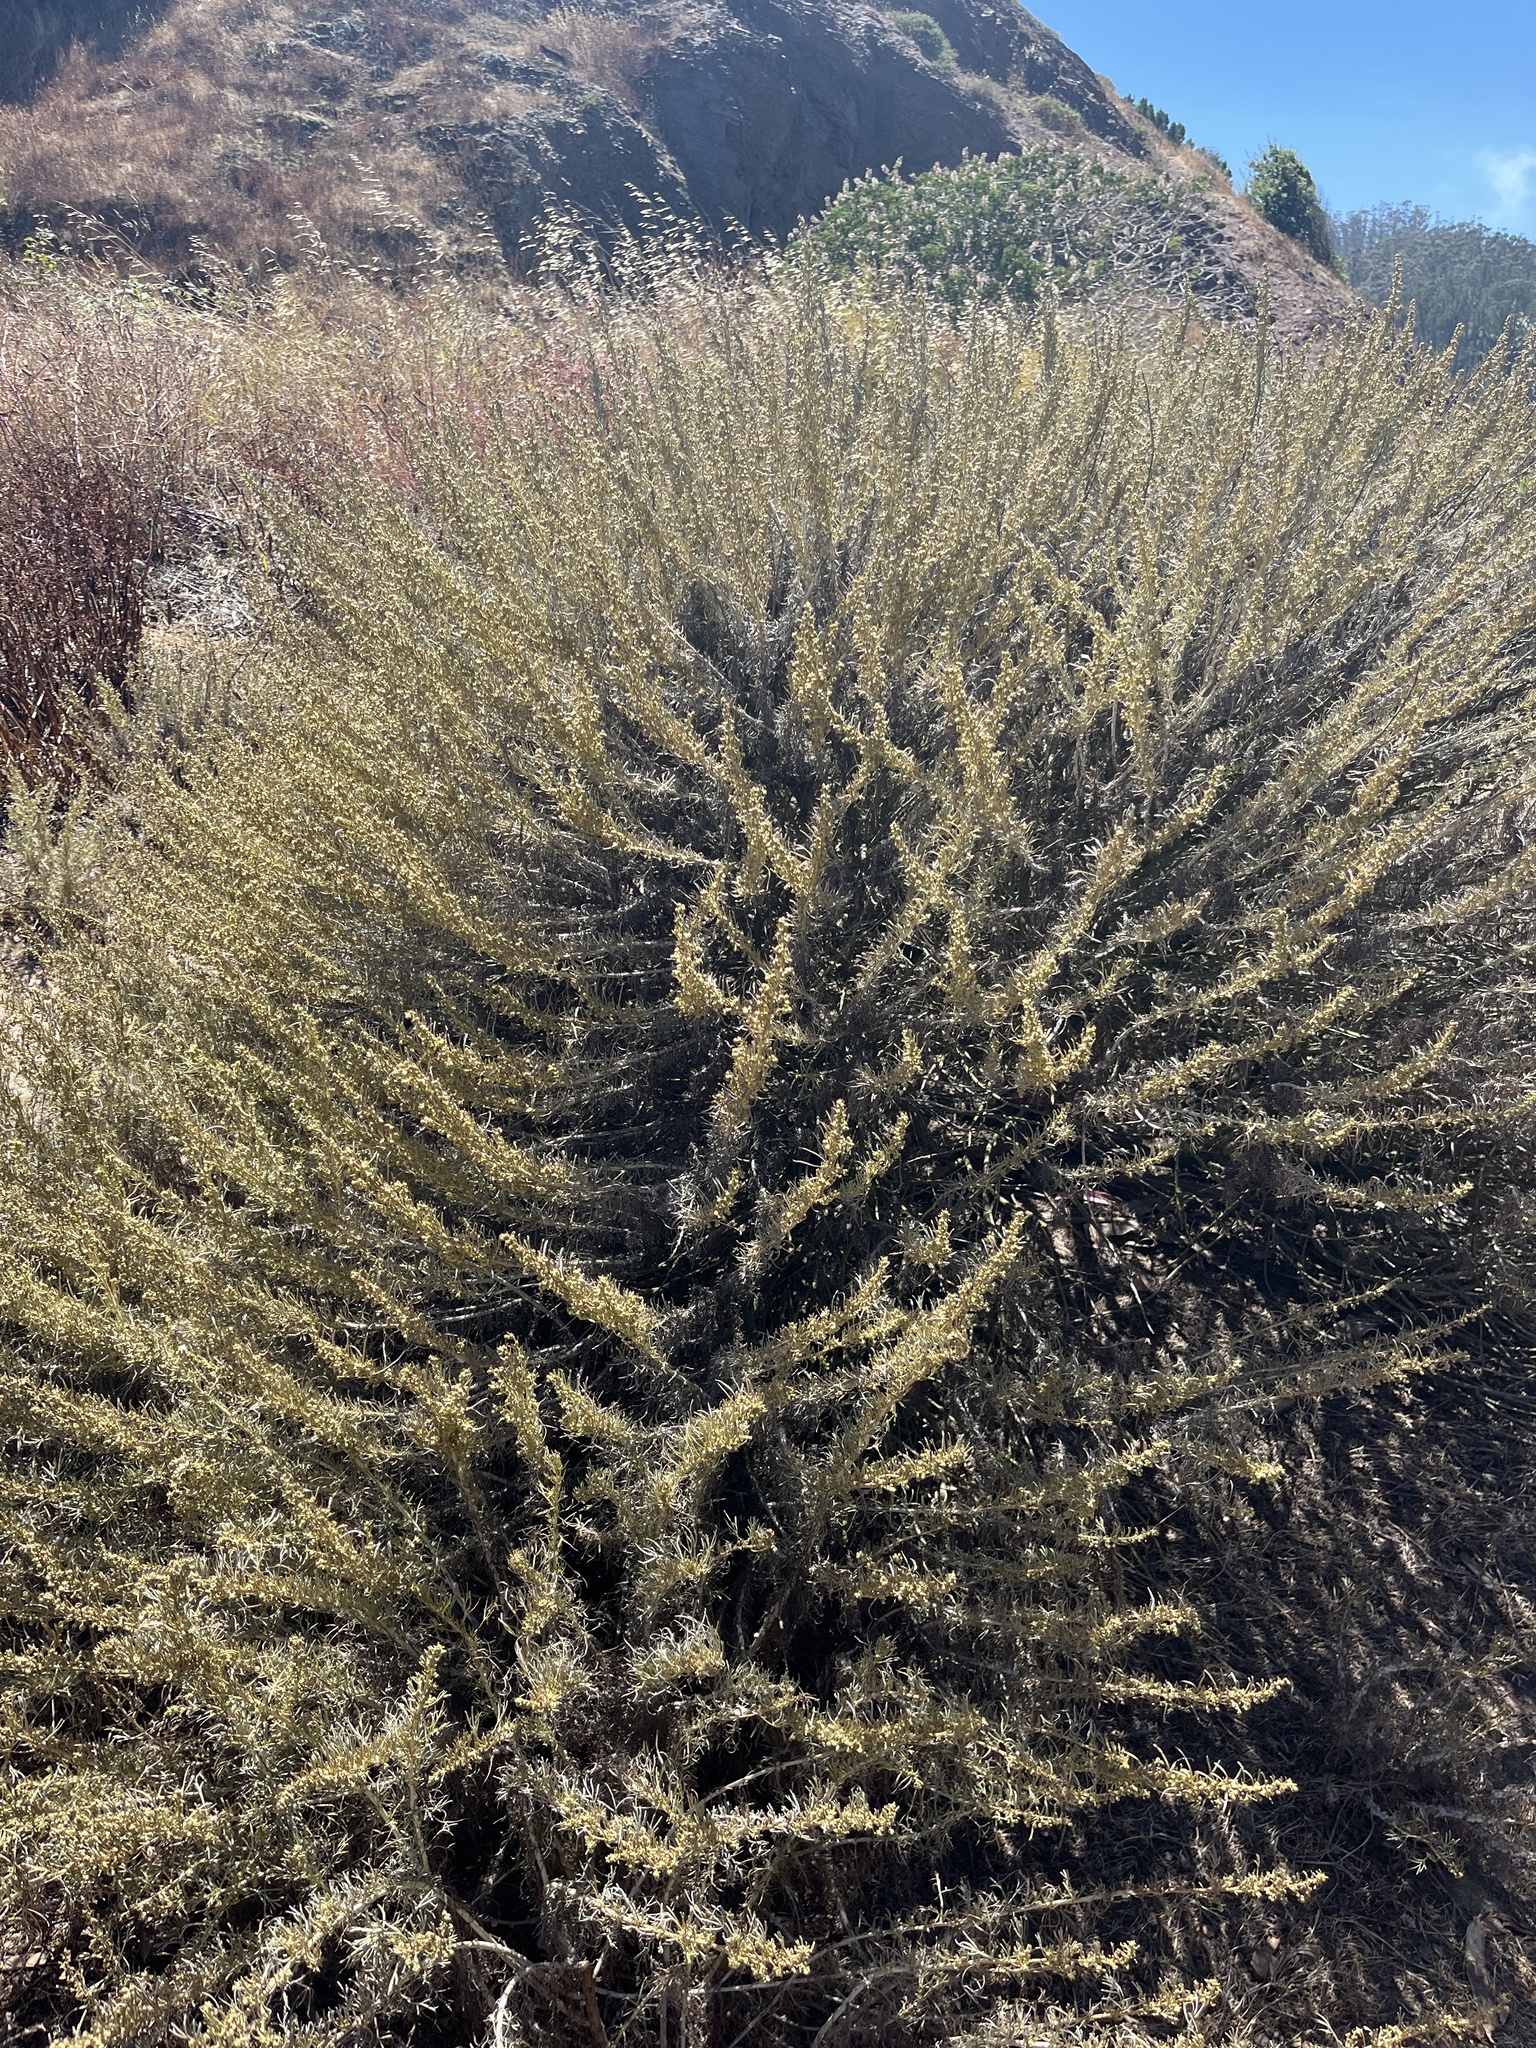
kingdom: Plantae
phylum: Tracheophyta
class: Magnoliopsida
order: Asterales
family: Asteraceae
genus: Artemisia
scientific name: Artemisia californica
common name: California sagebrush
